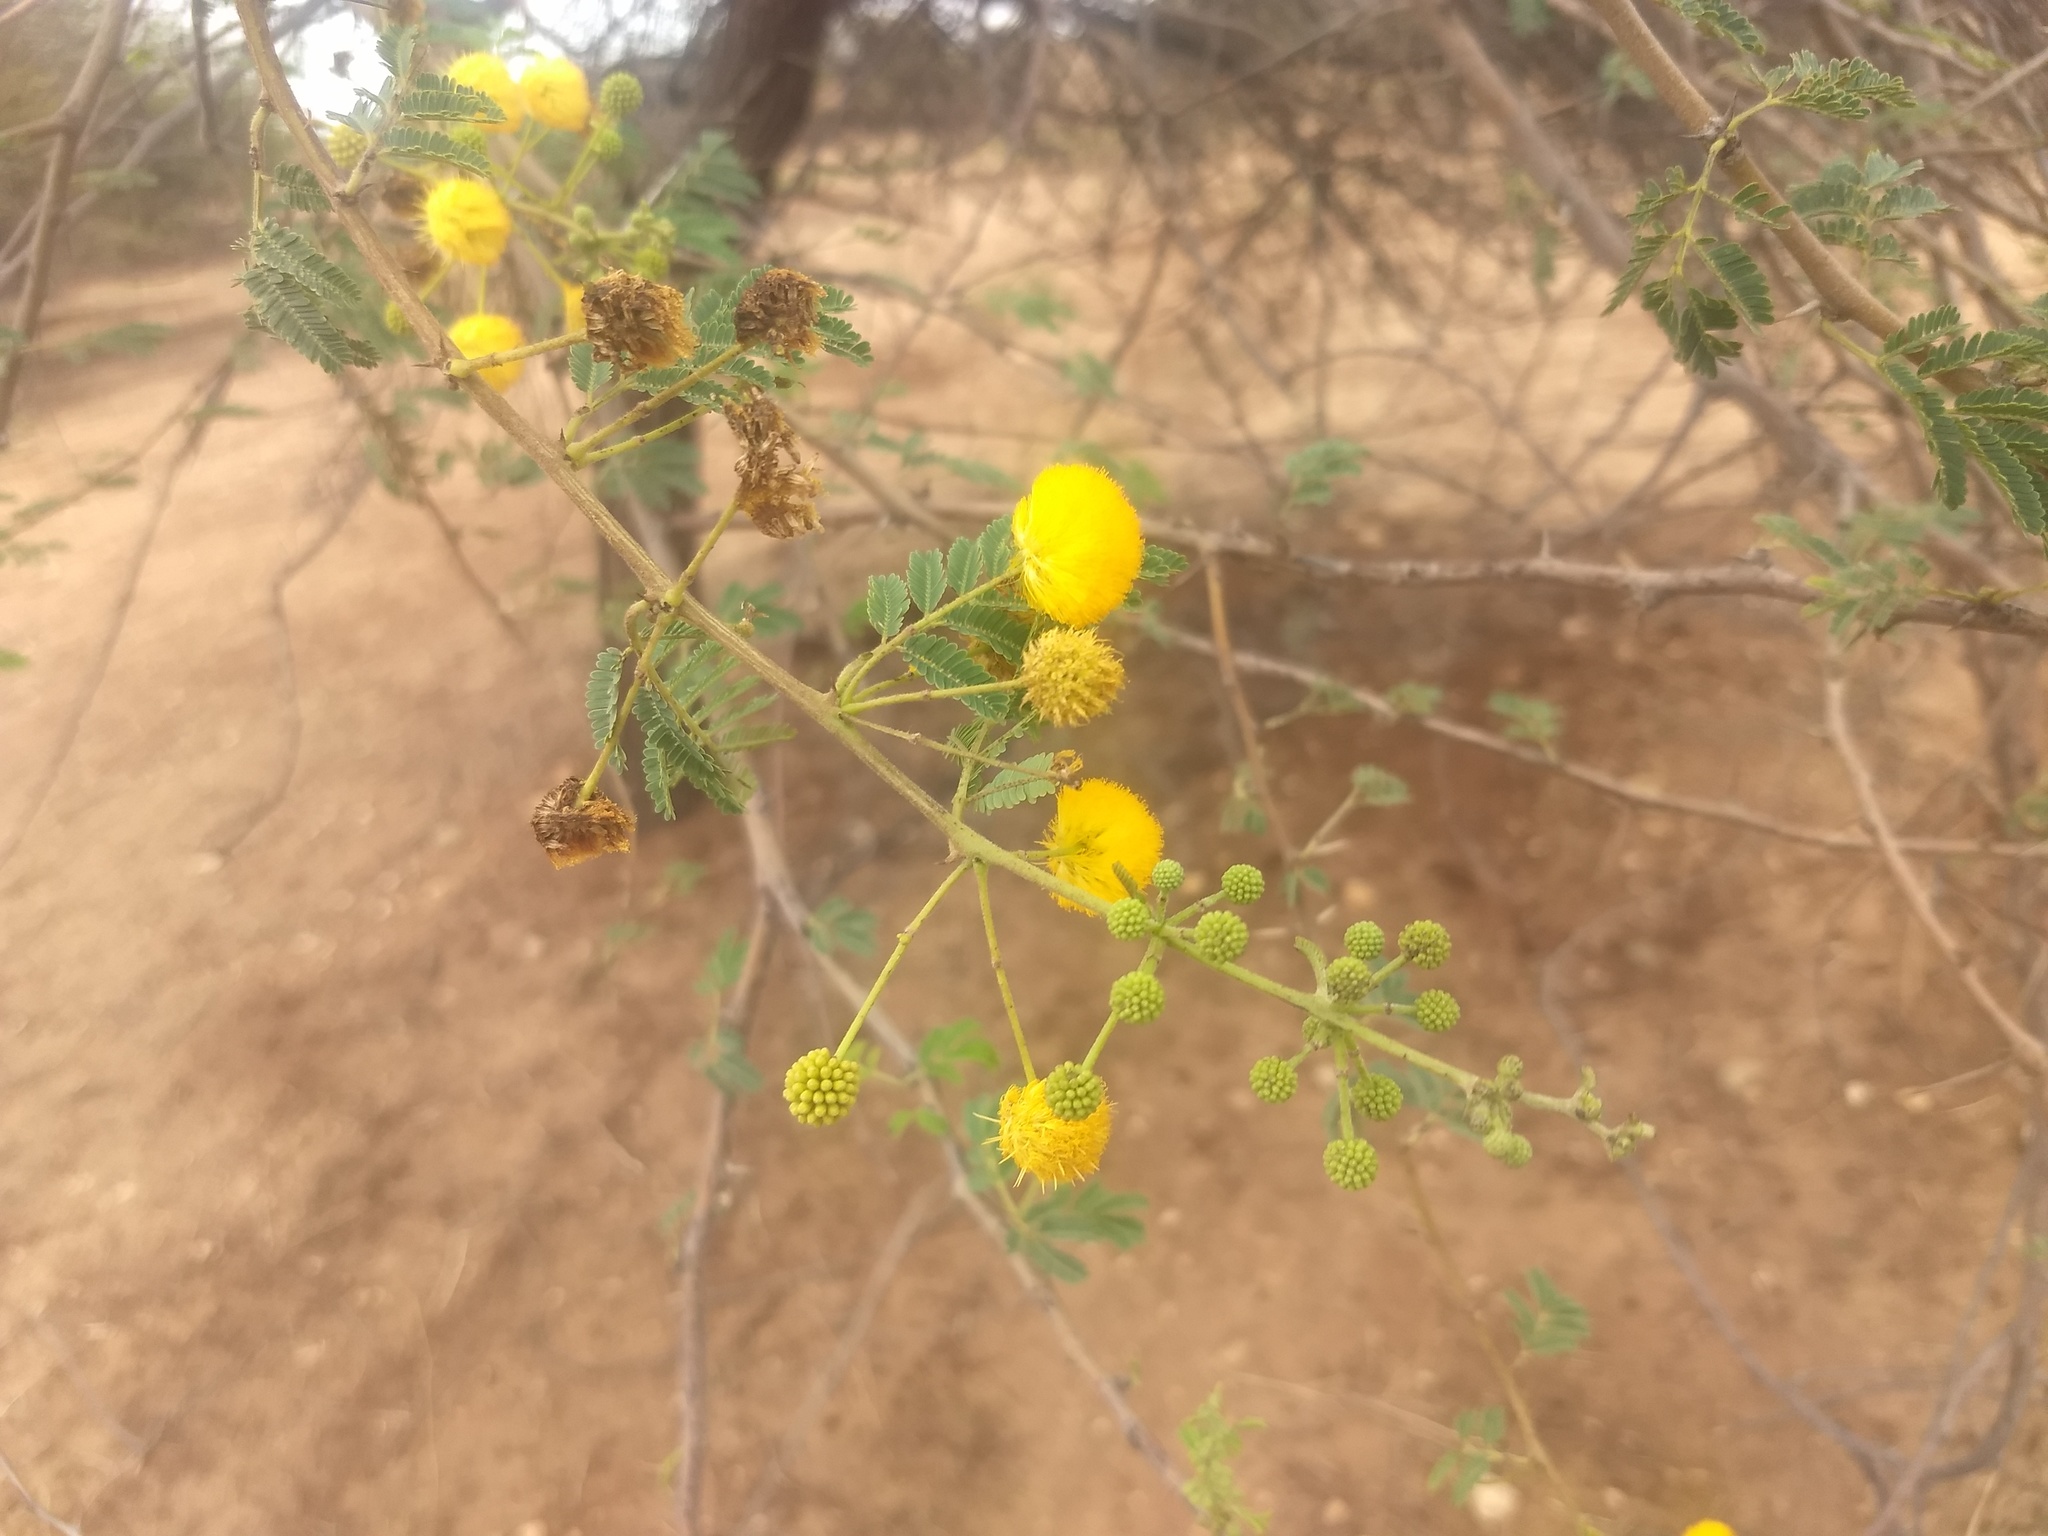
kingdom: Plantae
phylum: Tracheophyta
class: Magnoliopsida
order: Fabales
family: Fabaceae
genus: Vachellia
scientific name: Vachellia nilotica
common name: Arabic gumtree
